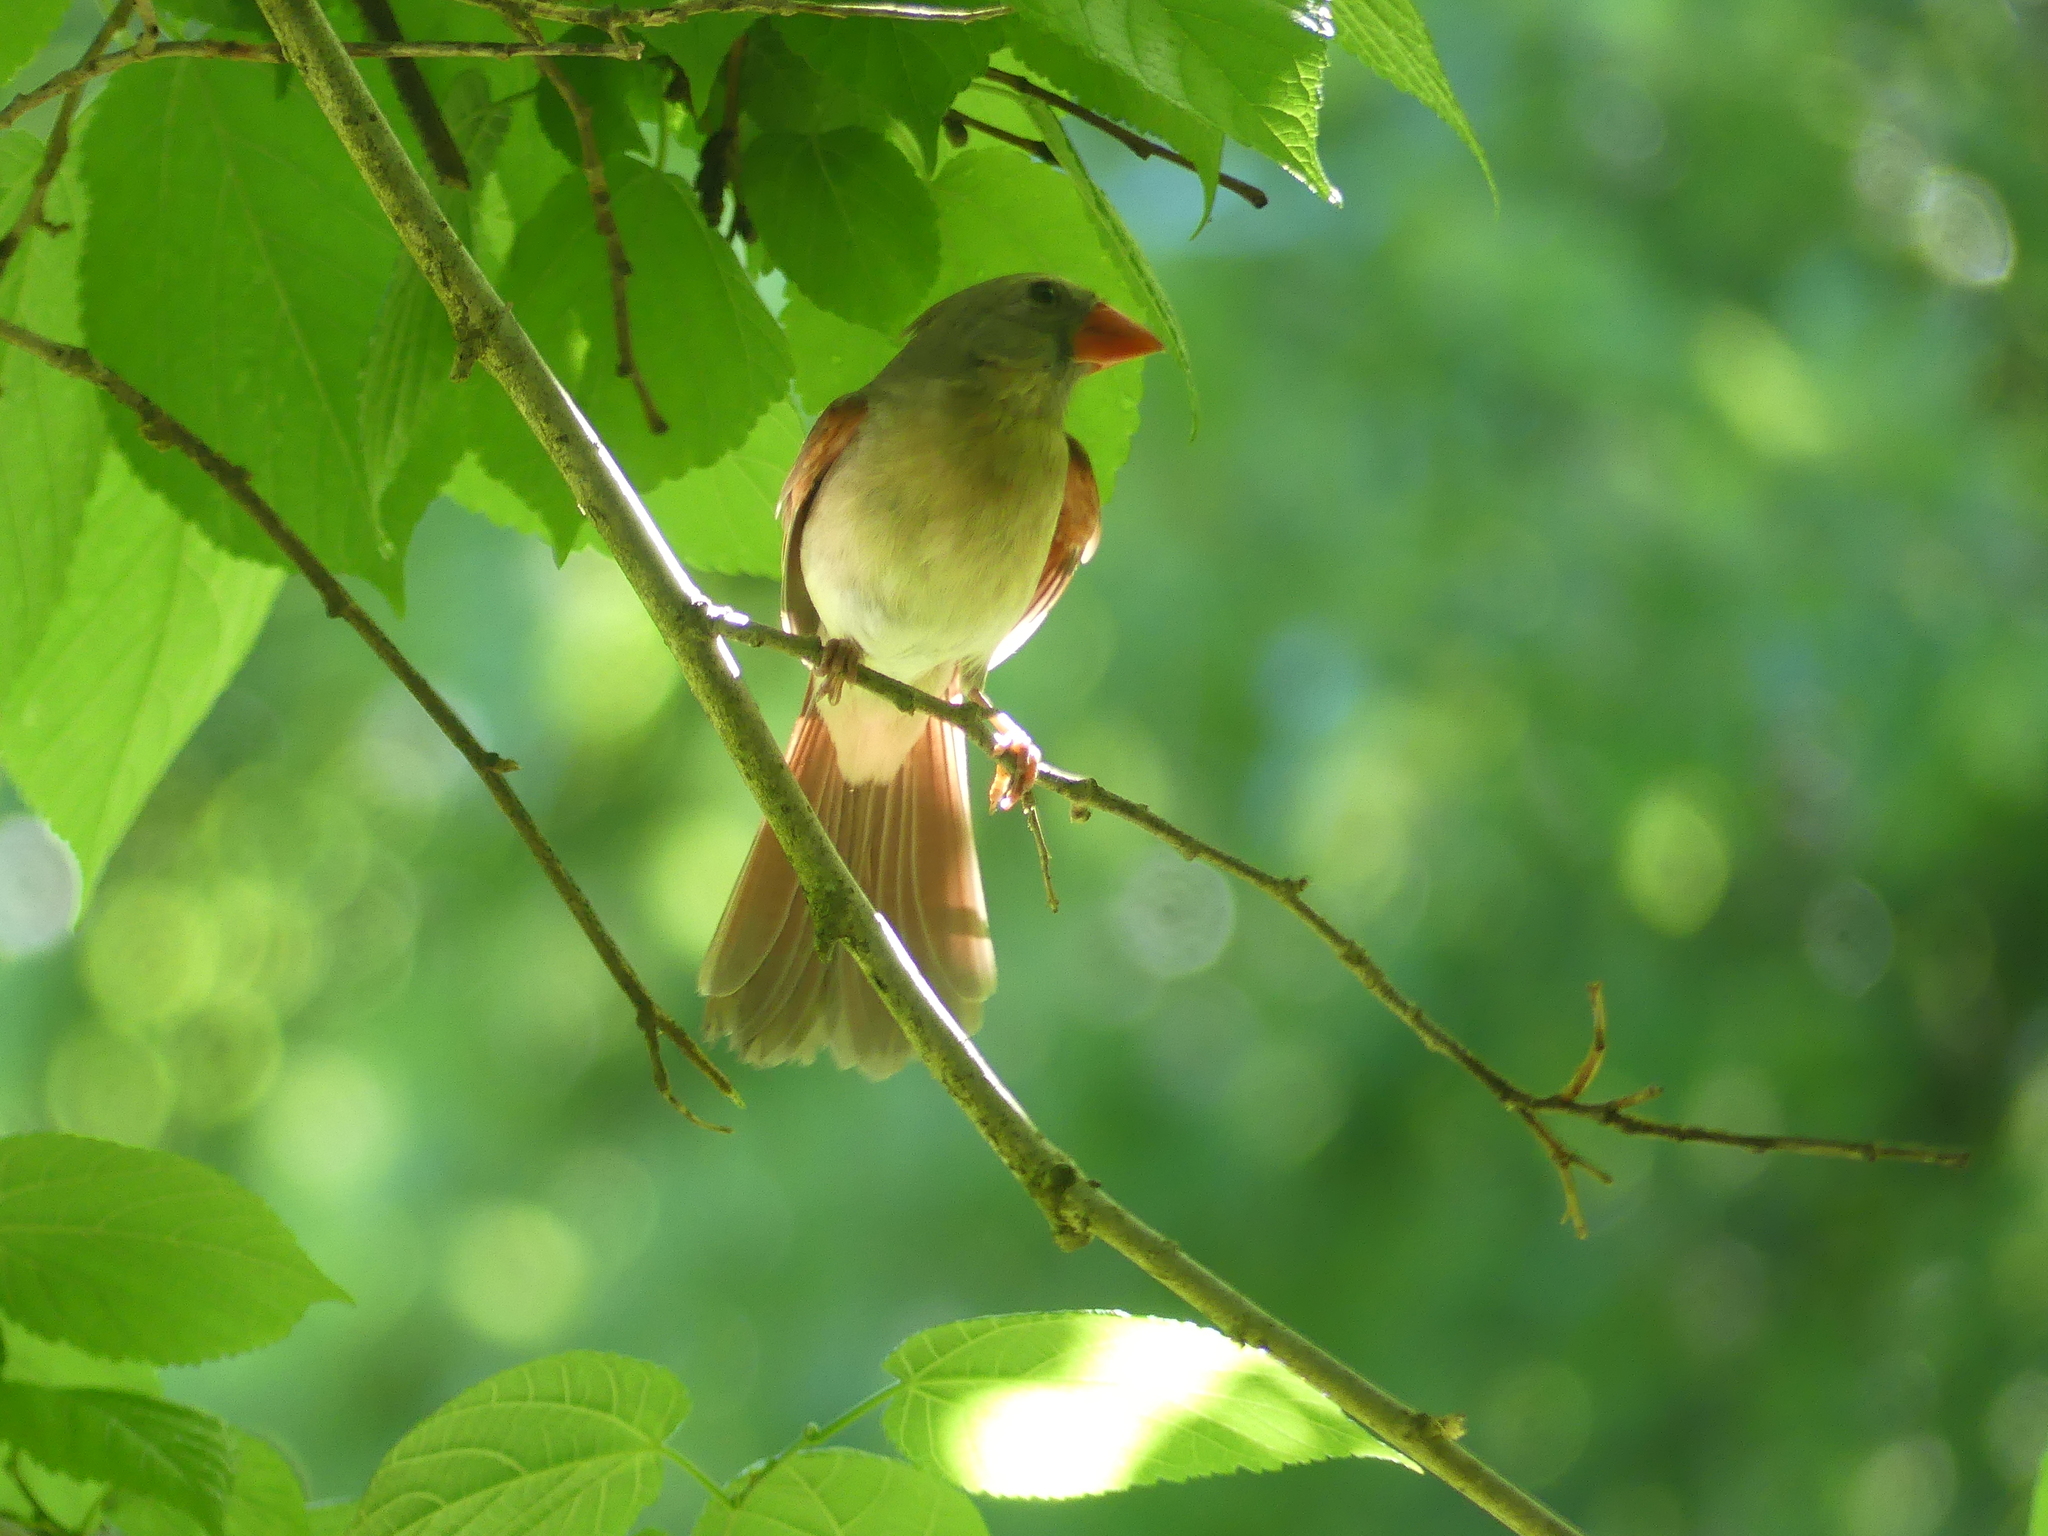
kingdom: Animalia
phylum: Chordata
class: Aves
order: Passeriformes
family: Cardinalidae
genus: Cardinalis
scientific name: Cardinalis cardinalis
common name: Northern cardinal
